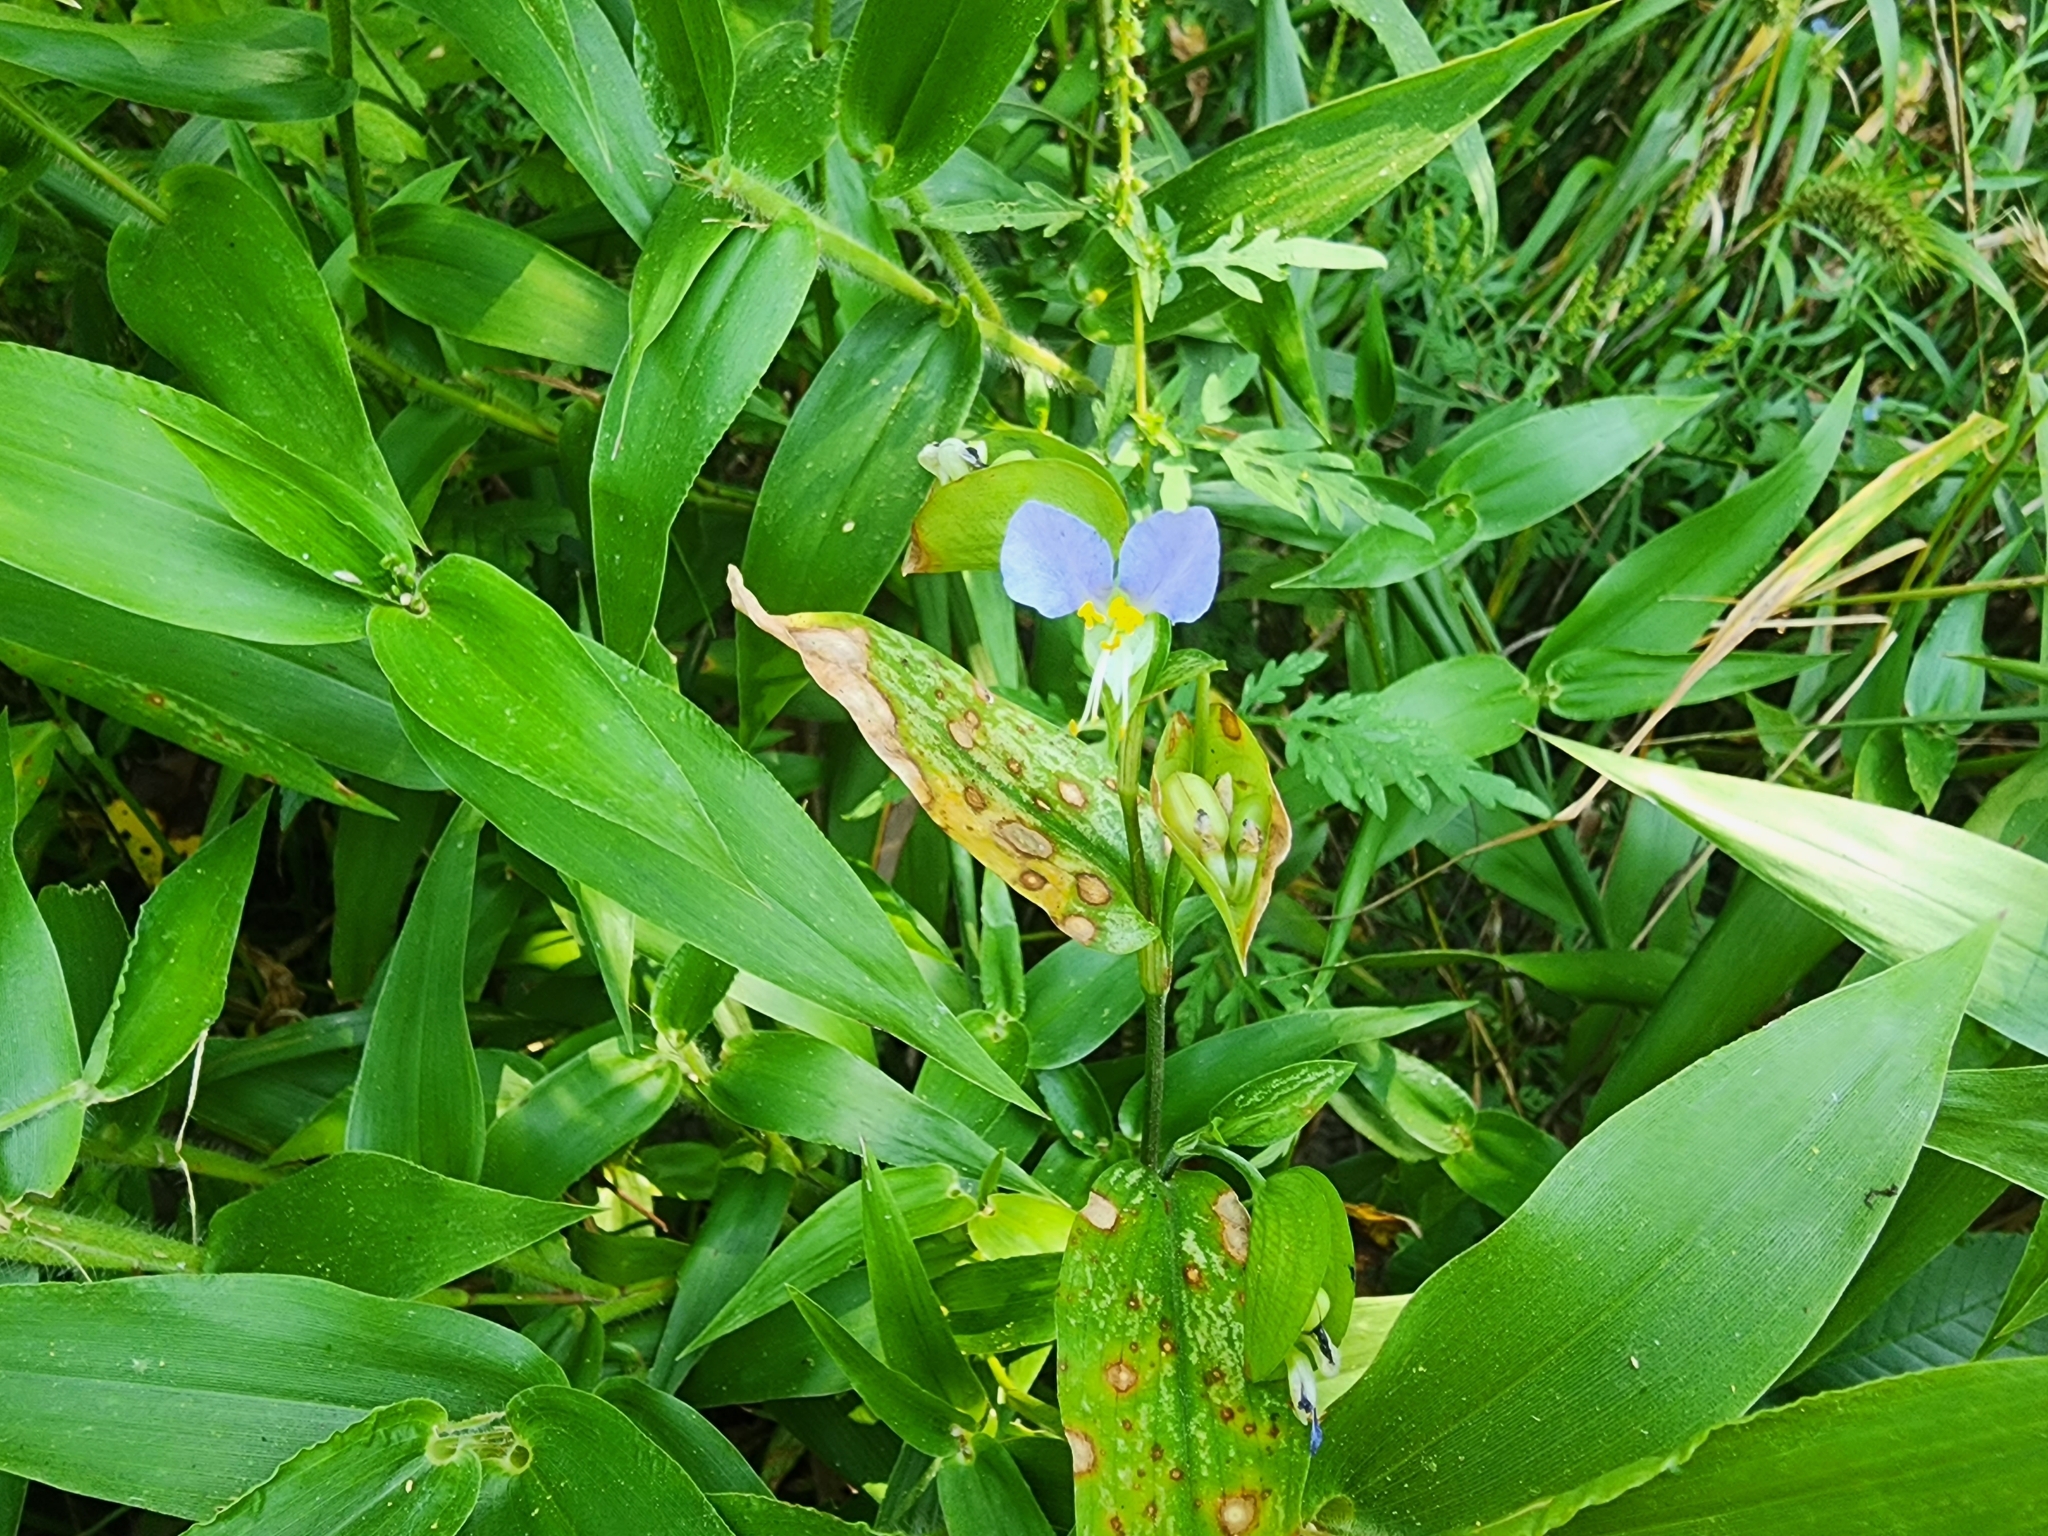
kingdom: Plantae
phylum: Tracheophyta
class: Liliopsida
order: Commelinales
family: Commelinaceae
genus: Commelina
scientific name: Commelina communis
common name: Asiatic dayflower
